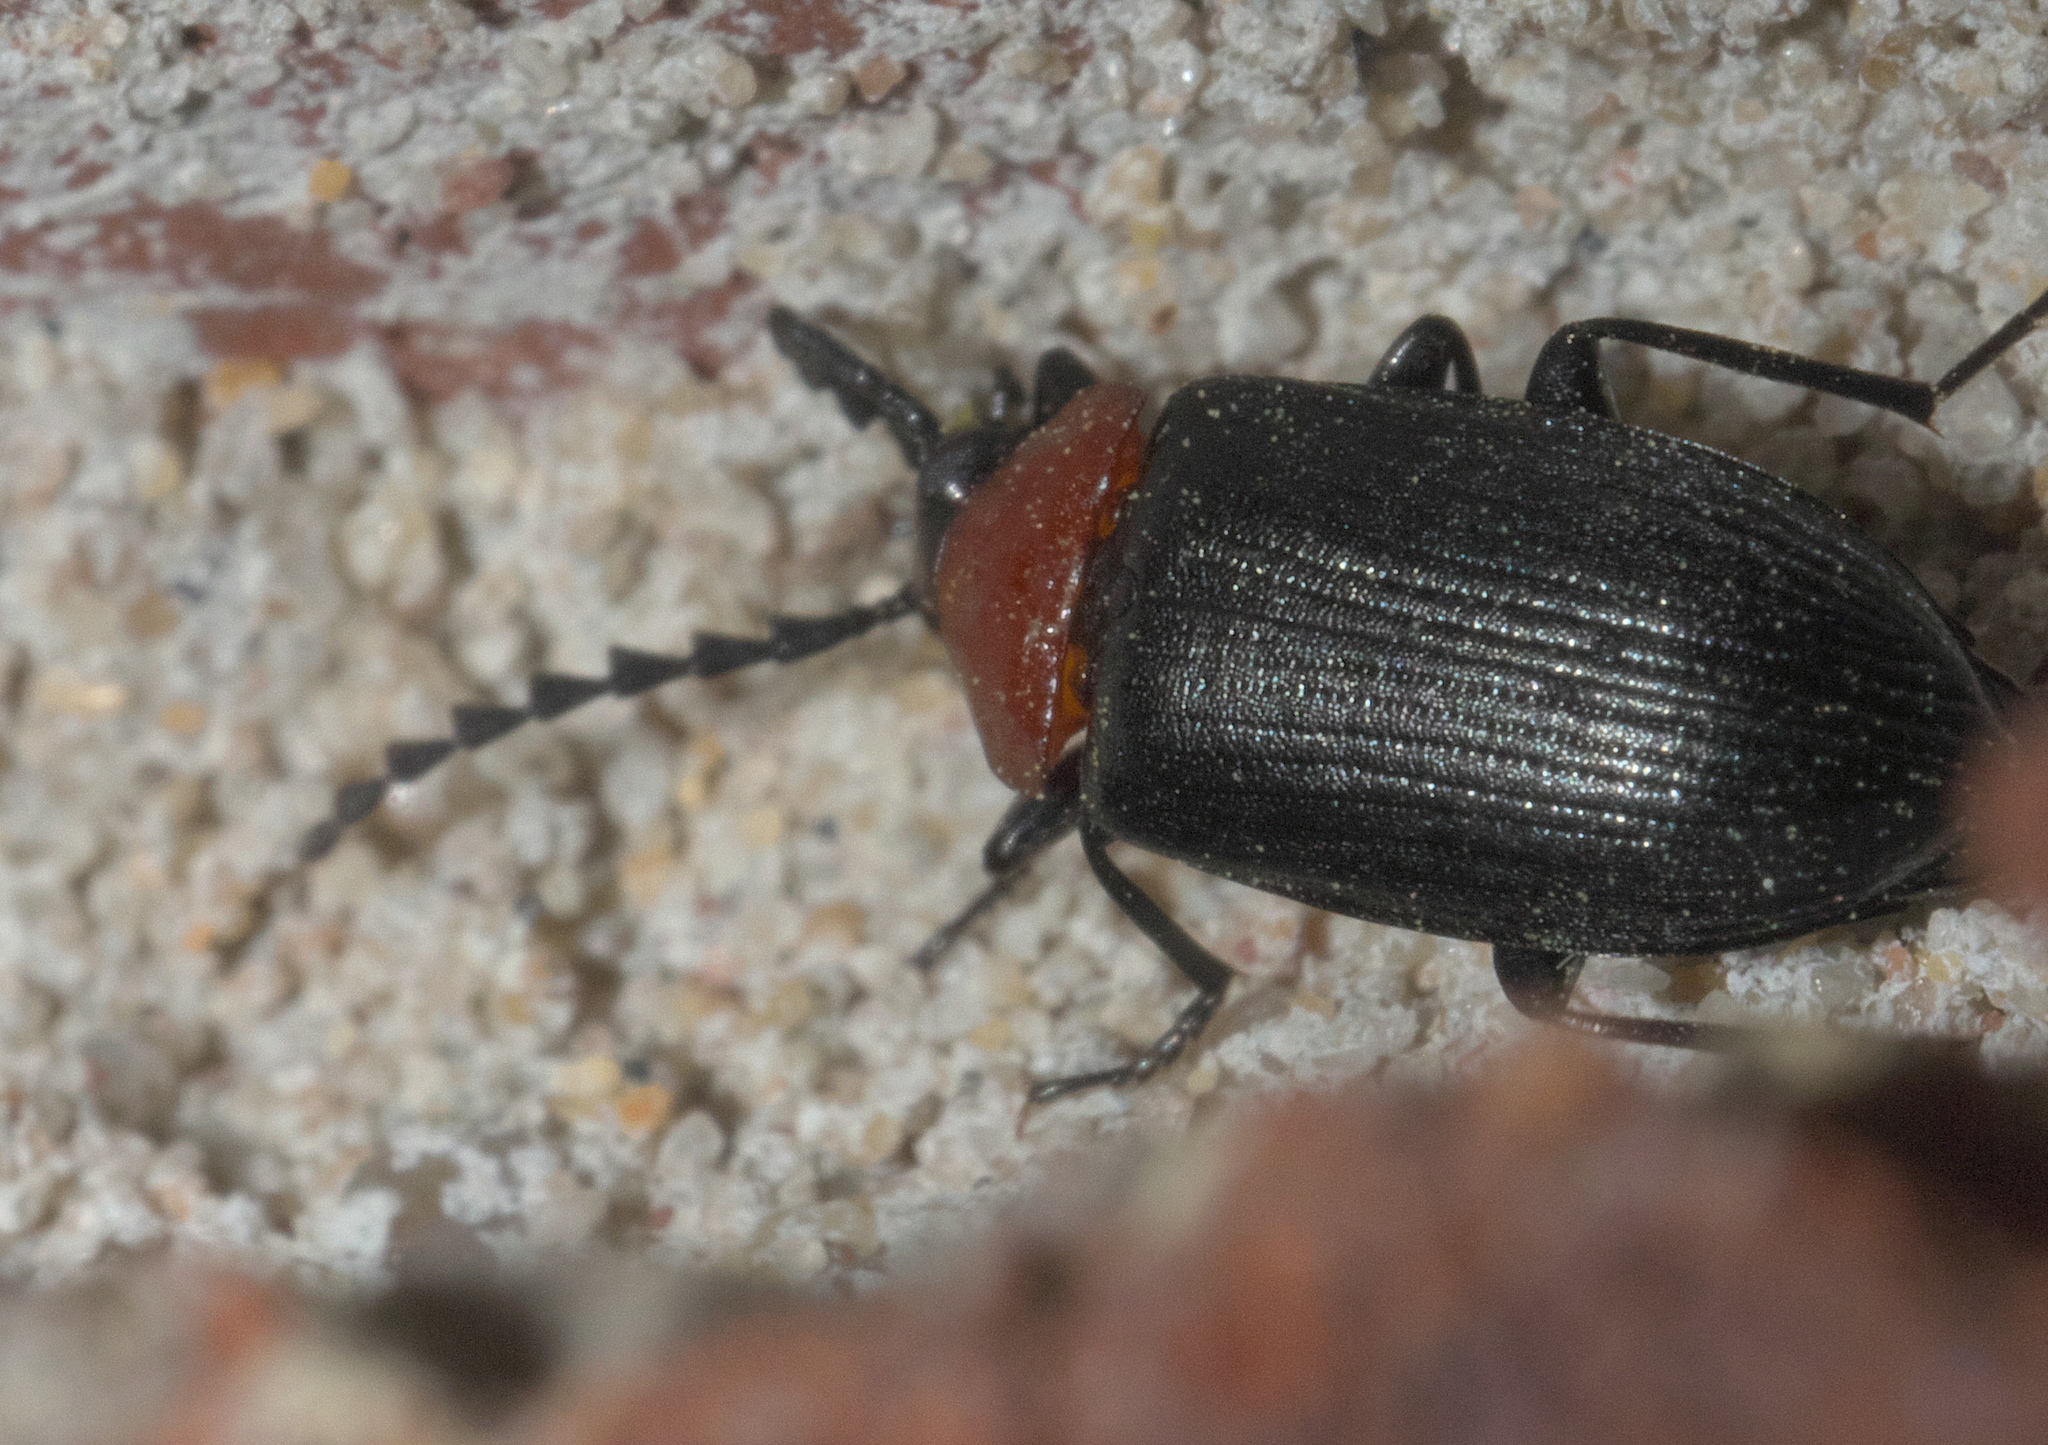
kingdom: Animalia
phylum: Arthropoda
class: Insecta
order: Coleoptera
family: Tenebrionidae
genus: Chromatia
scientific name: Chromatia amoena
